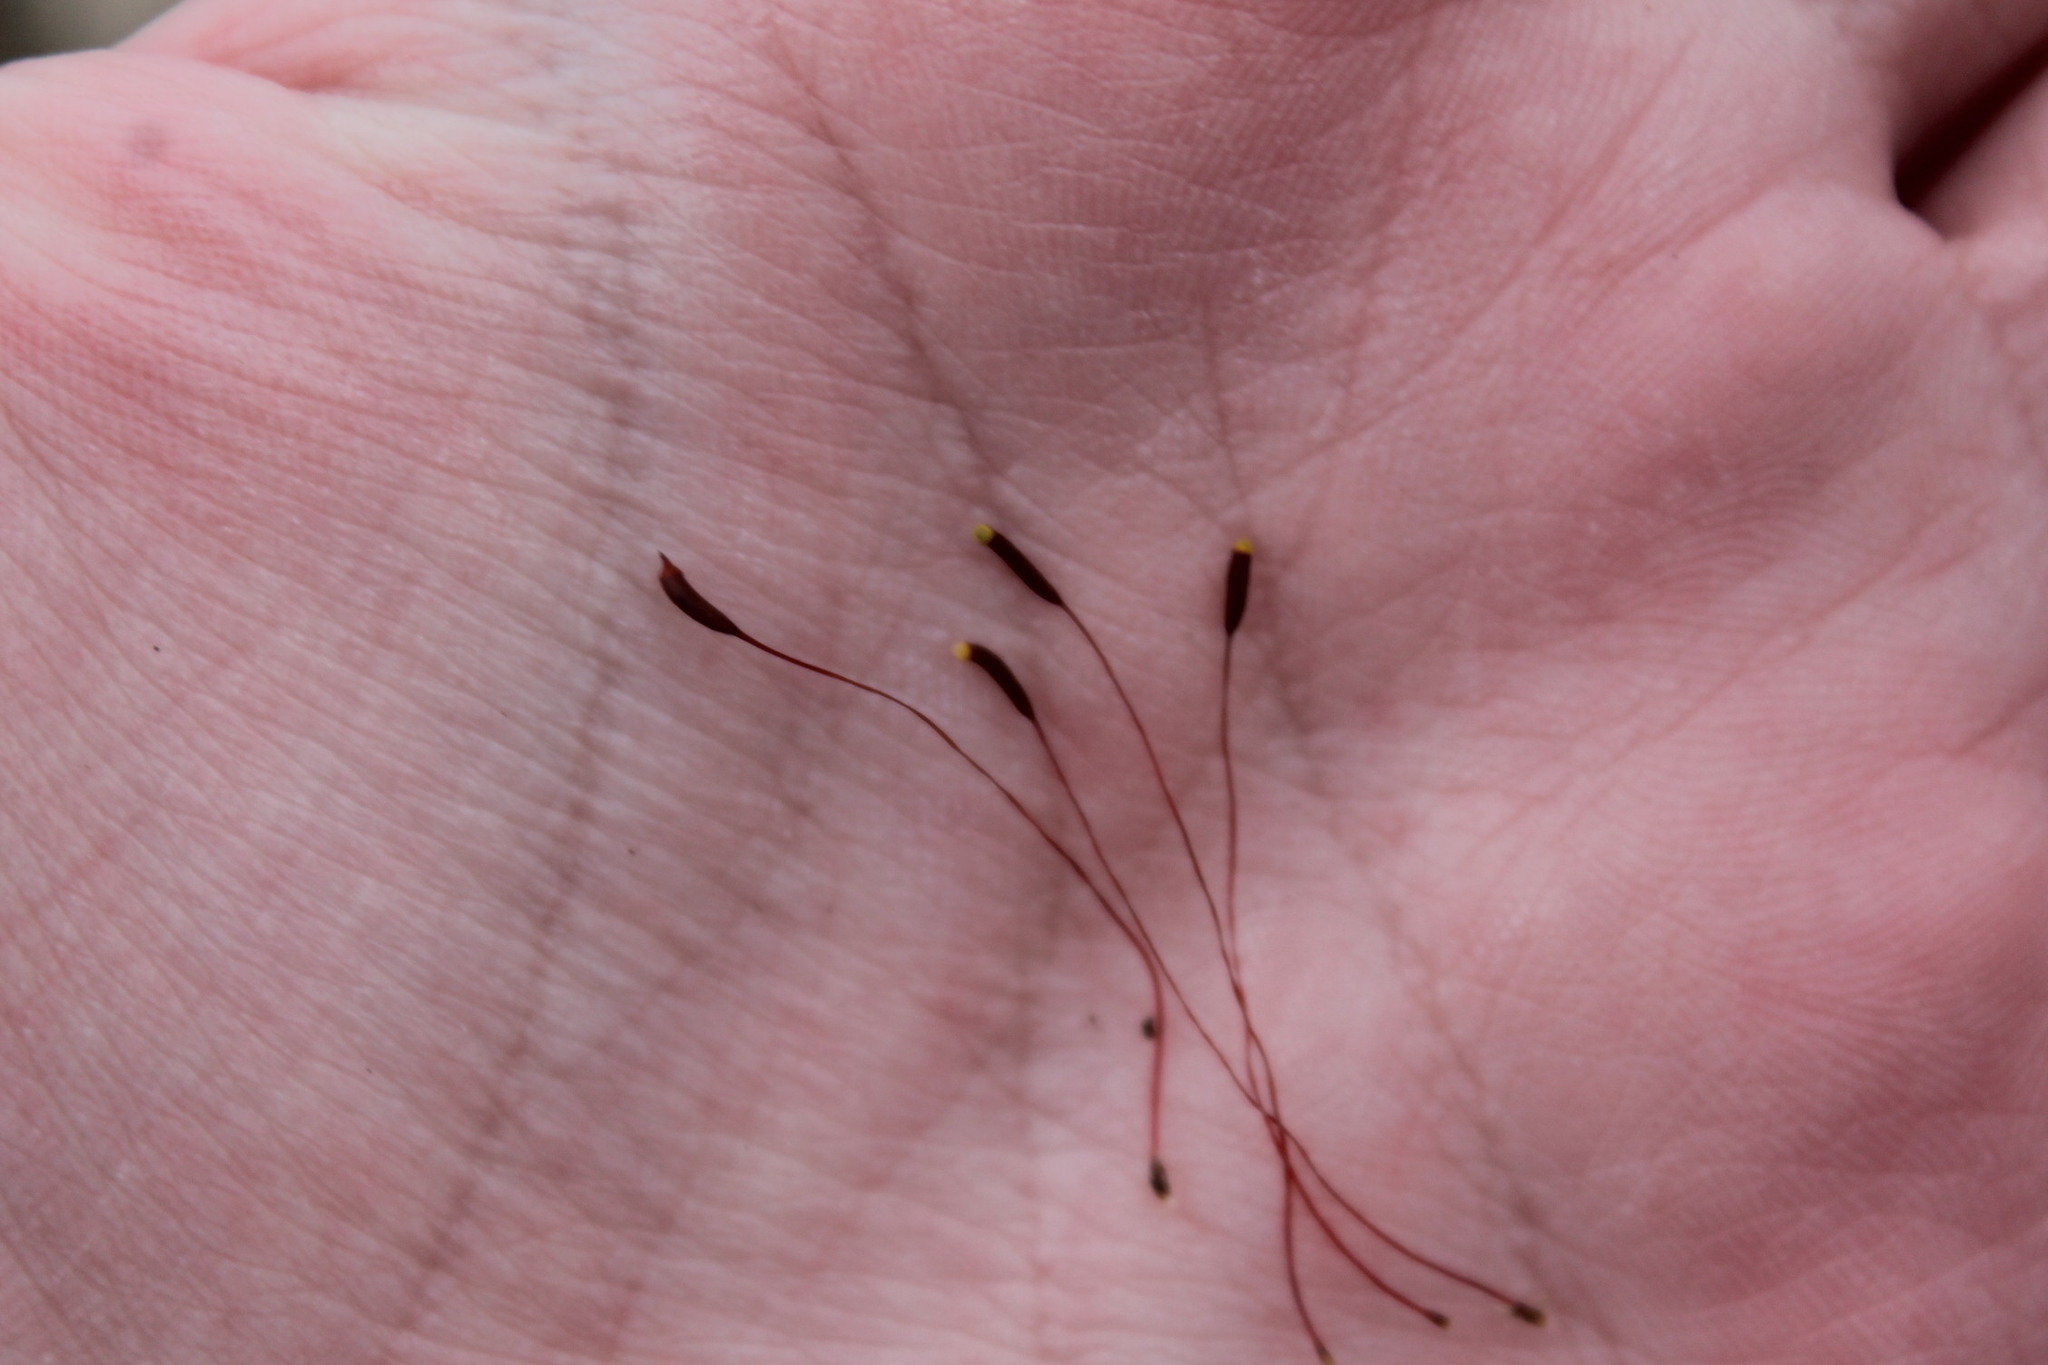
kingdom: Plantae
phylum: Bryophyta
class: Bryopsida
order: Dicranales
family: Leucobryaceae
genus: Leucobryum
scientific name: Leucobryum glaucum
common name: Large white-moss
